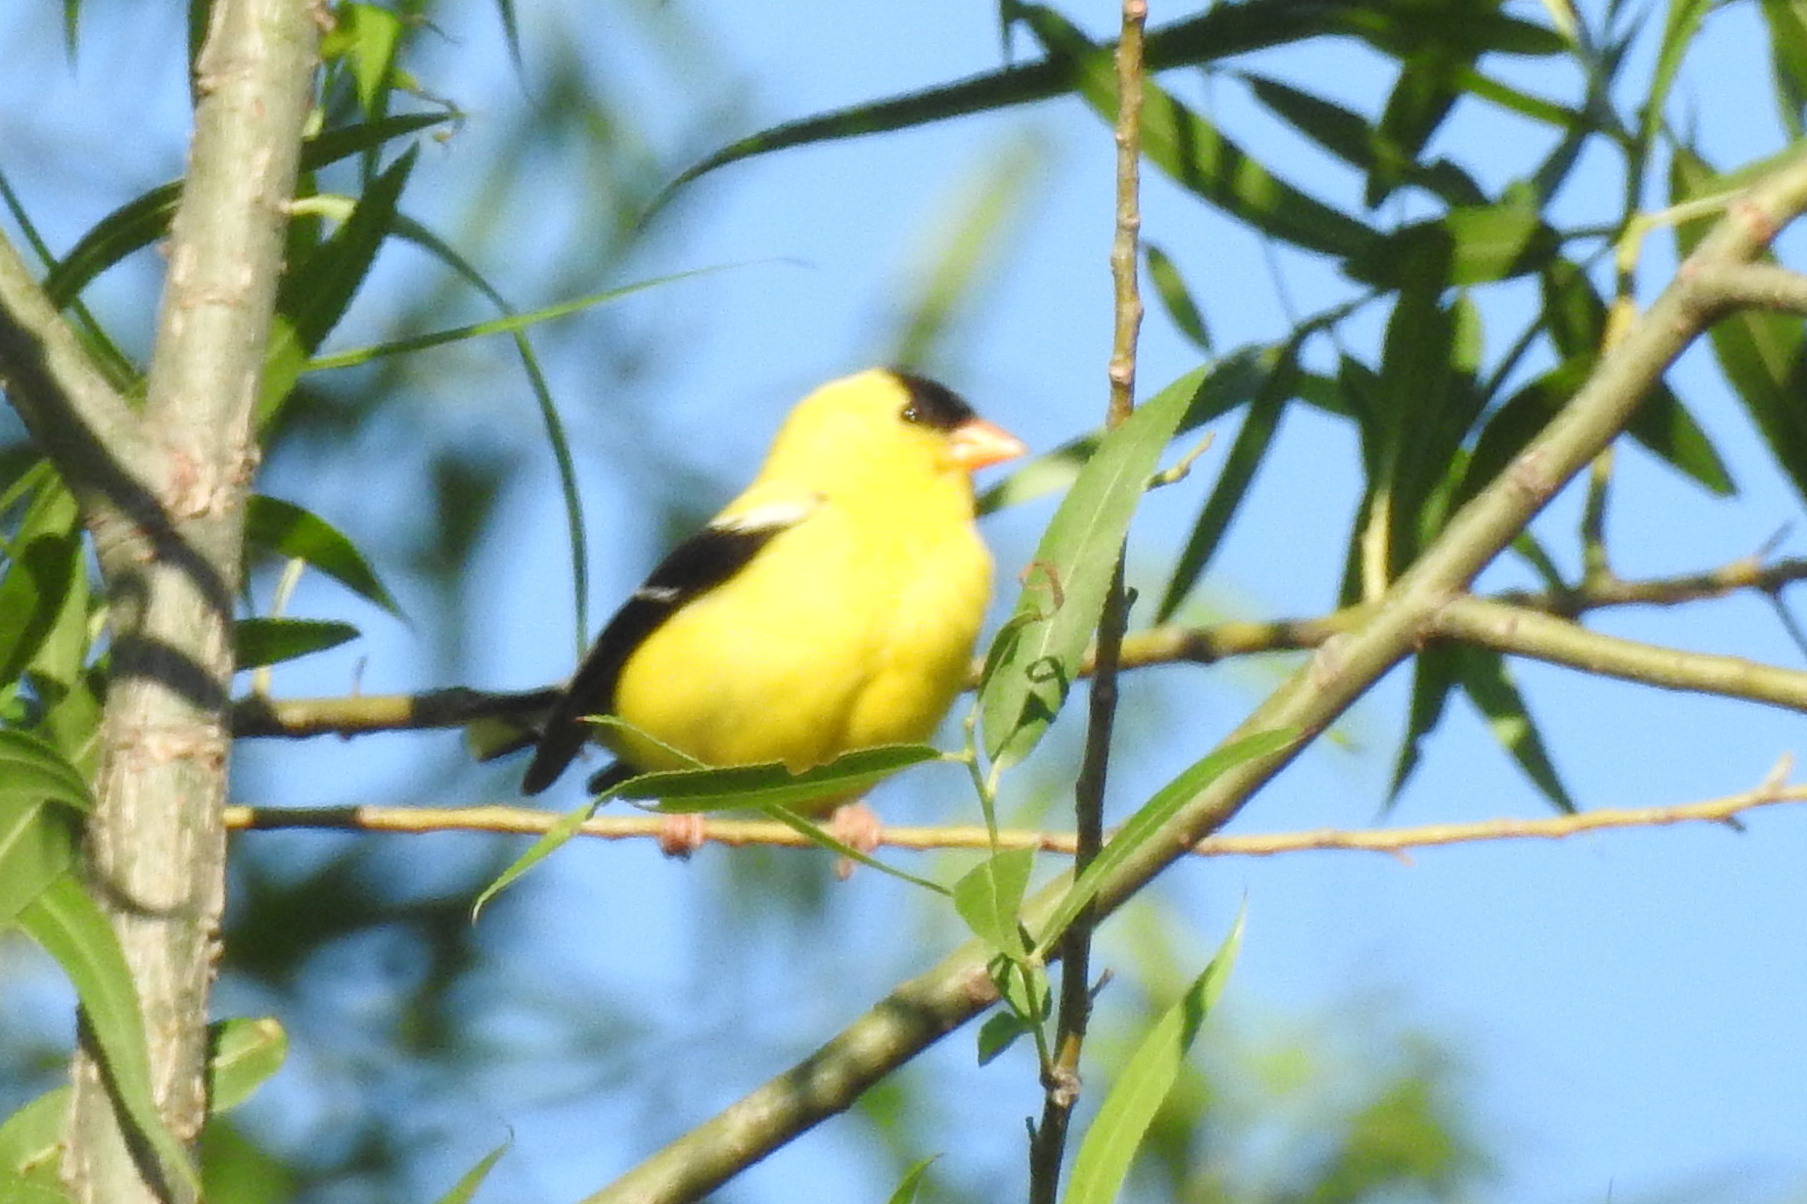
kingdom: Animalia
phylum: Chordata
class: Aves
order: Passeriformes
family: Fringillidae
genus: Spinus
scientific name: Spinus tristis
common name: American goldfinch
